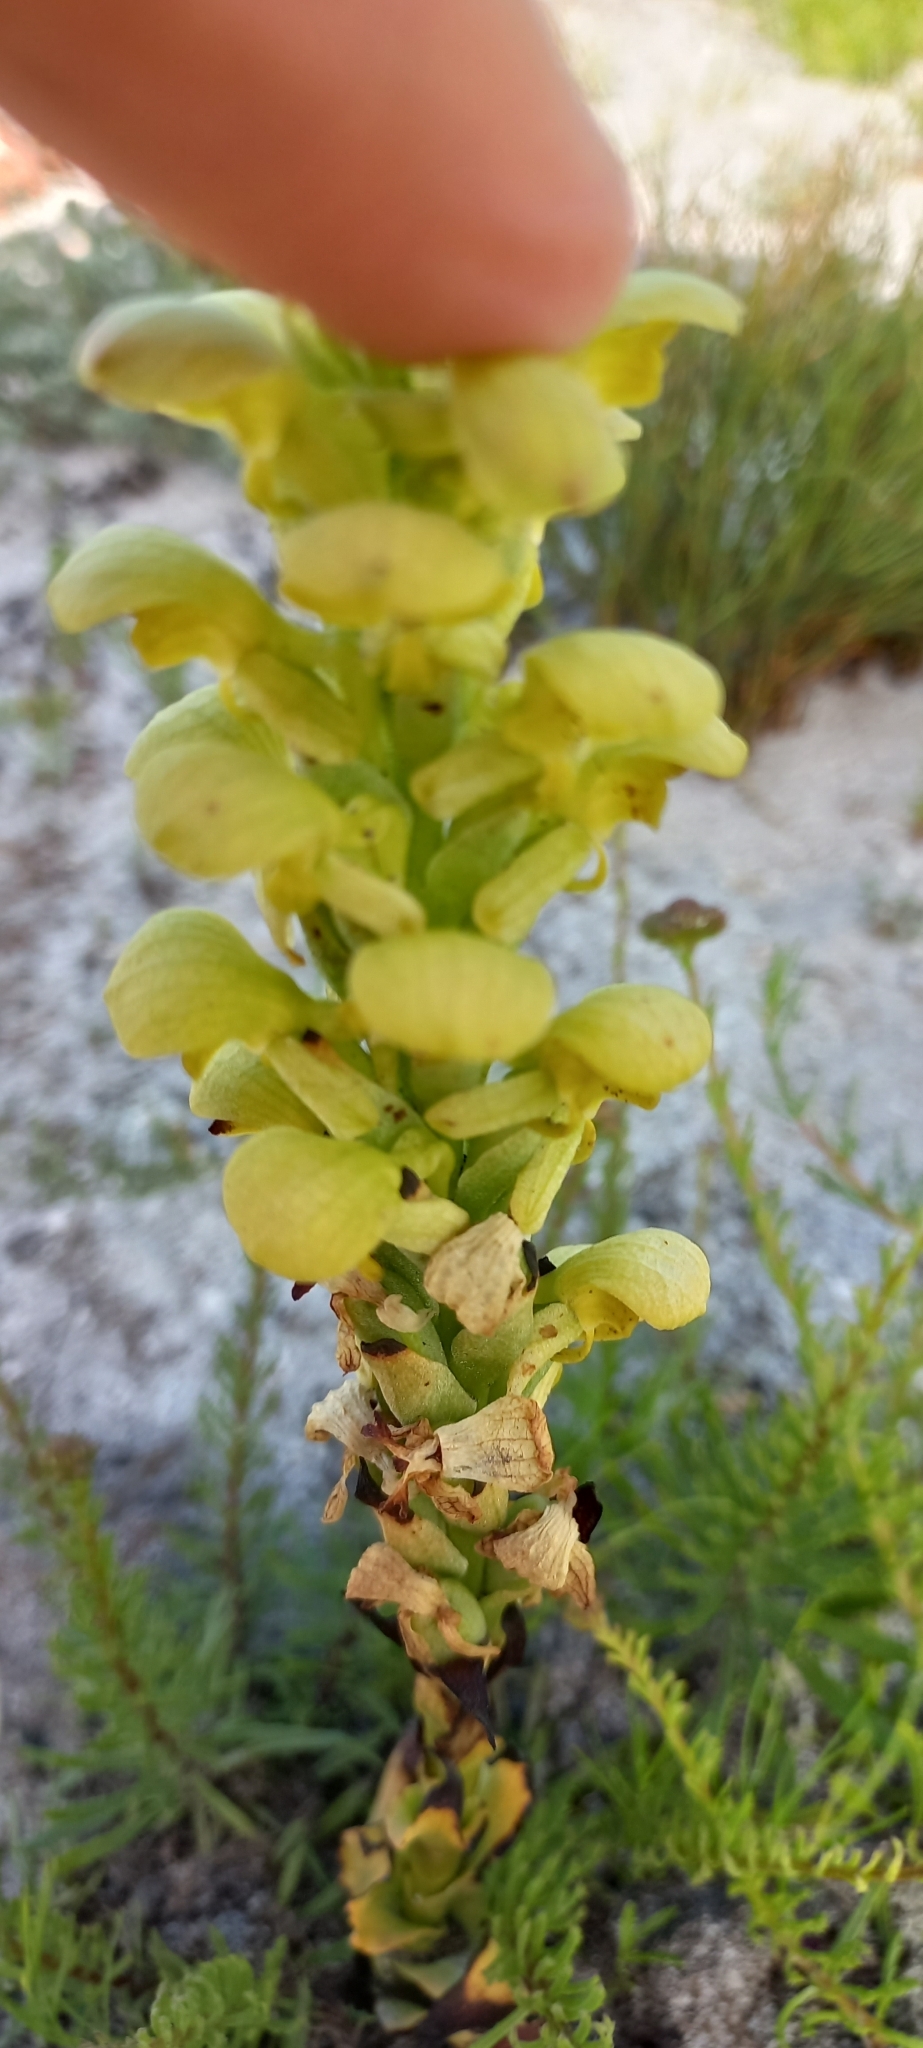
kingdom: Plantae
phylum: Tracheophyta
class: Liliopsida
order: Asparagales
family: Orchidaceae
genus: Disa
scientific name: Disa sabulosa
